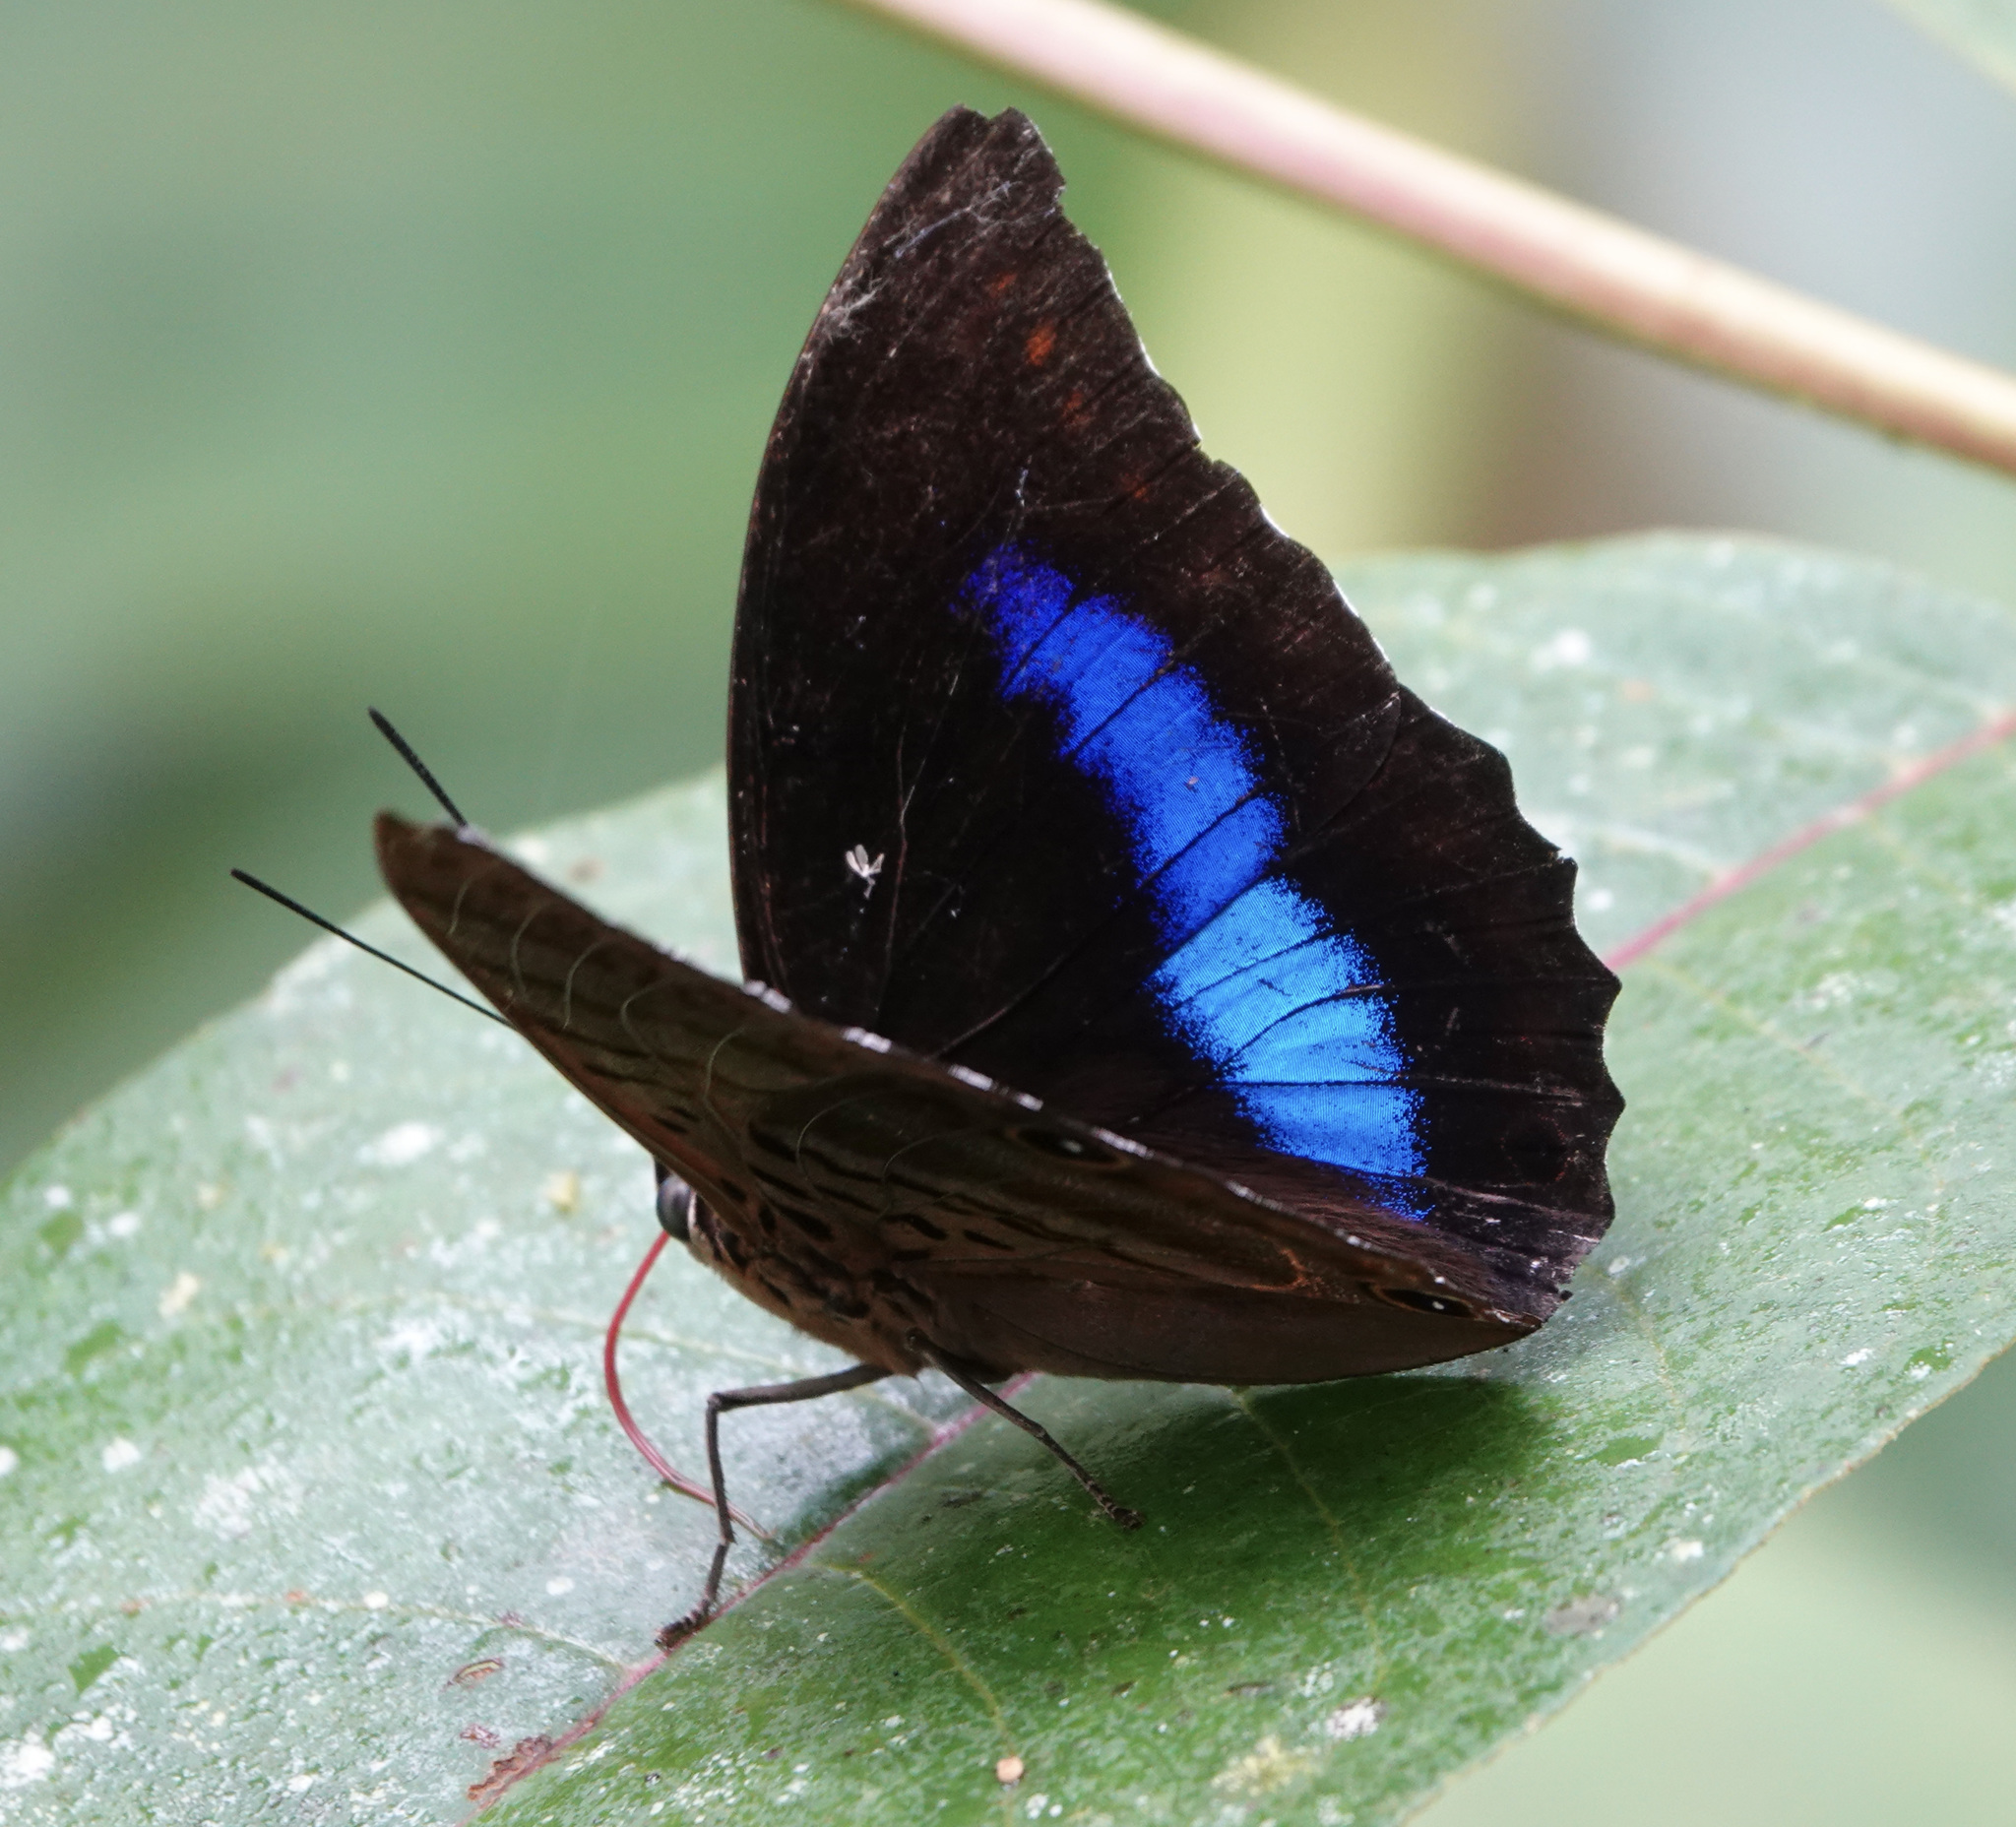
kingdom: Animalia
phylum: Arthropoda
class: Insecta
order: Lepidoptera
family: Nymphalidae
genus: Prepona
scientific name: Prepona werneri
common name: Werner's prepona
